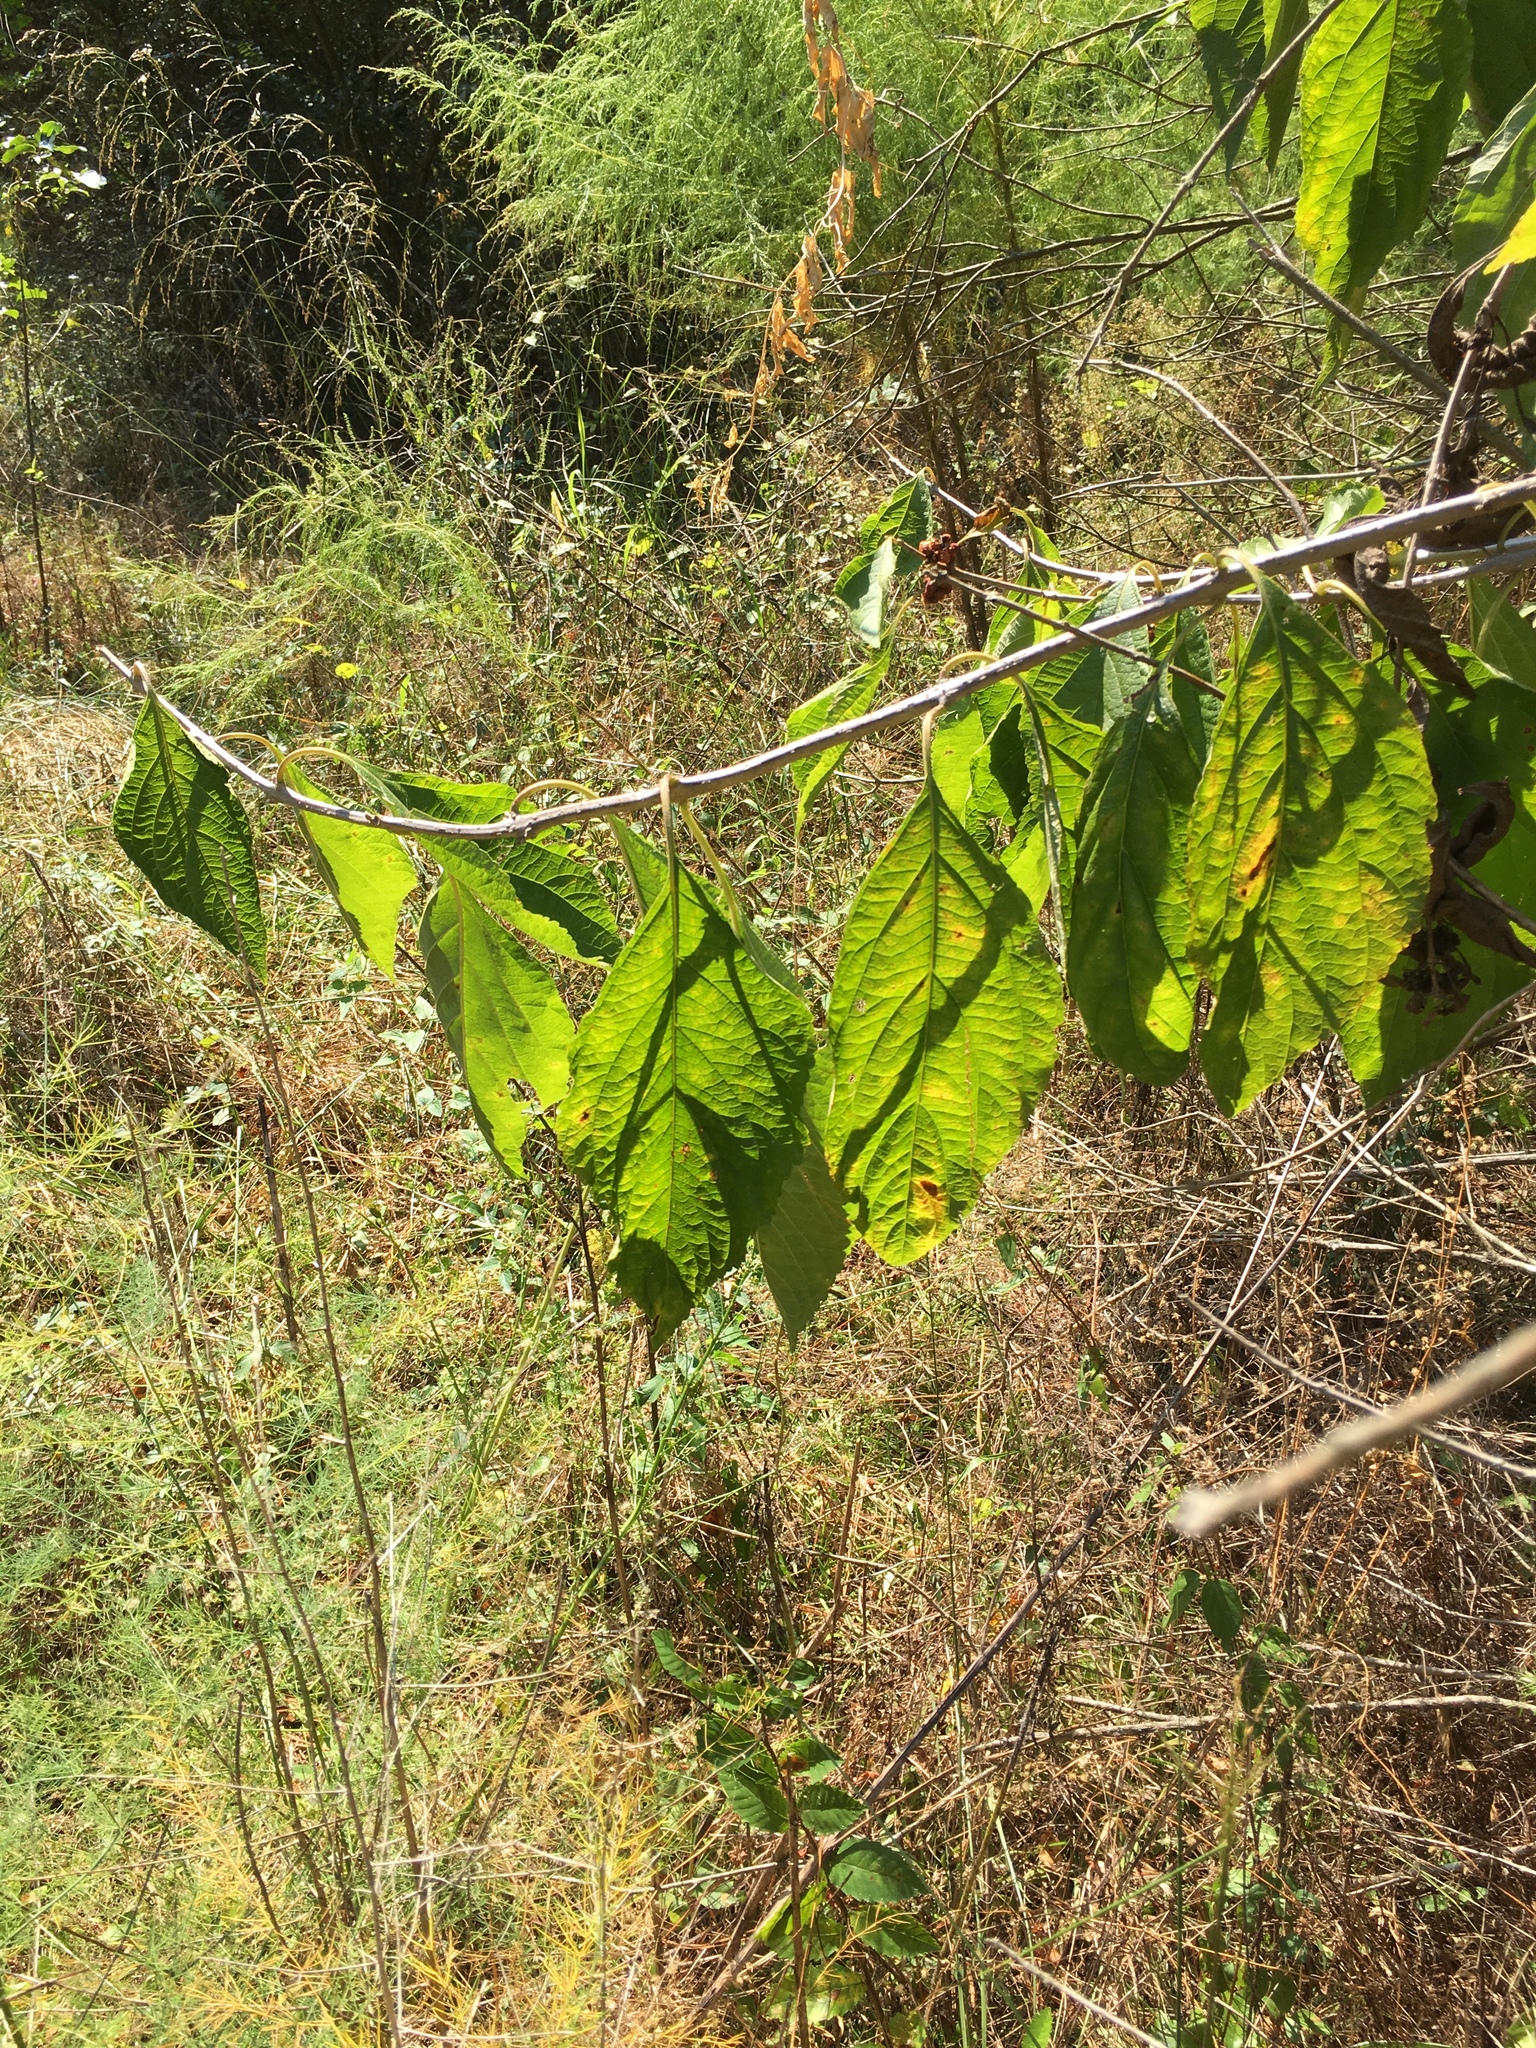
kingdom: Plantae
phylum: Tracheophyta
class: Magnoliopsida
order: Lamiales
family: Lamiaceae
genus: Callicarpa
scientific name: Callicarpa americana
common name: American beautyberry
